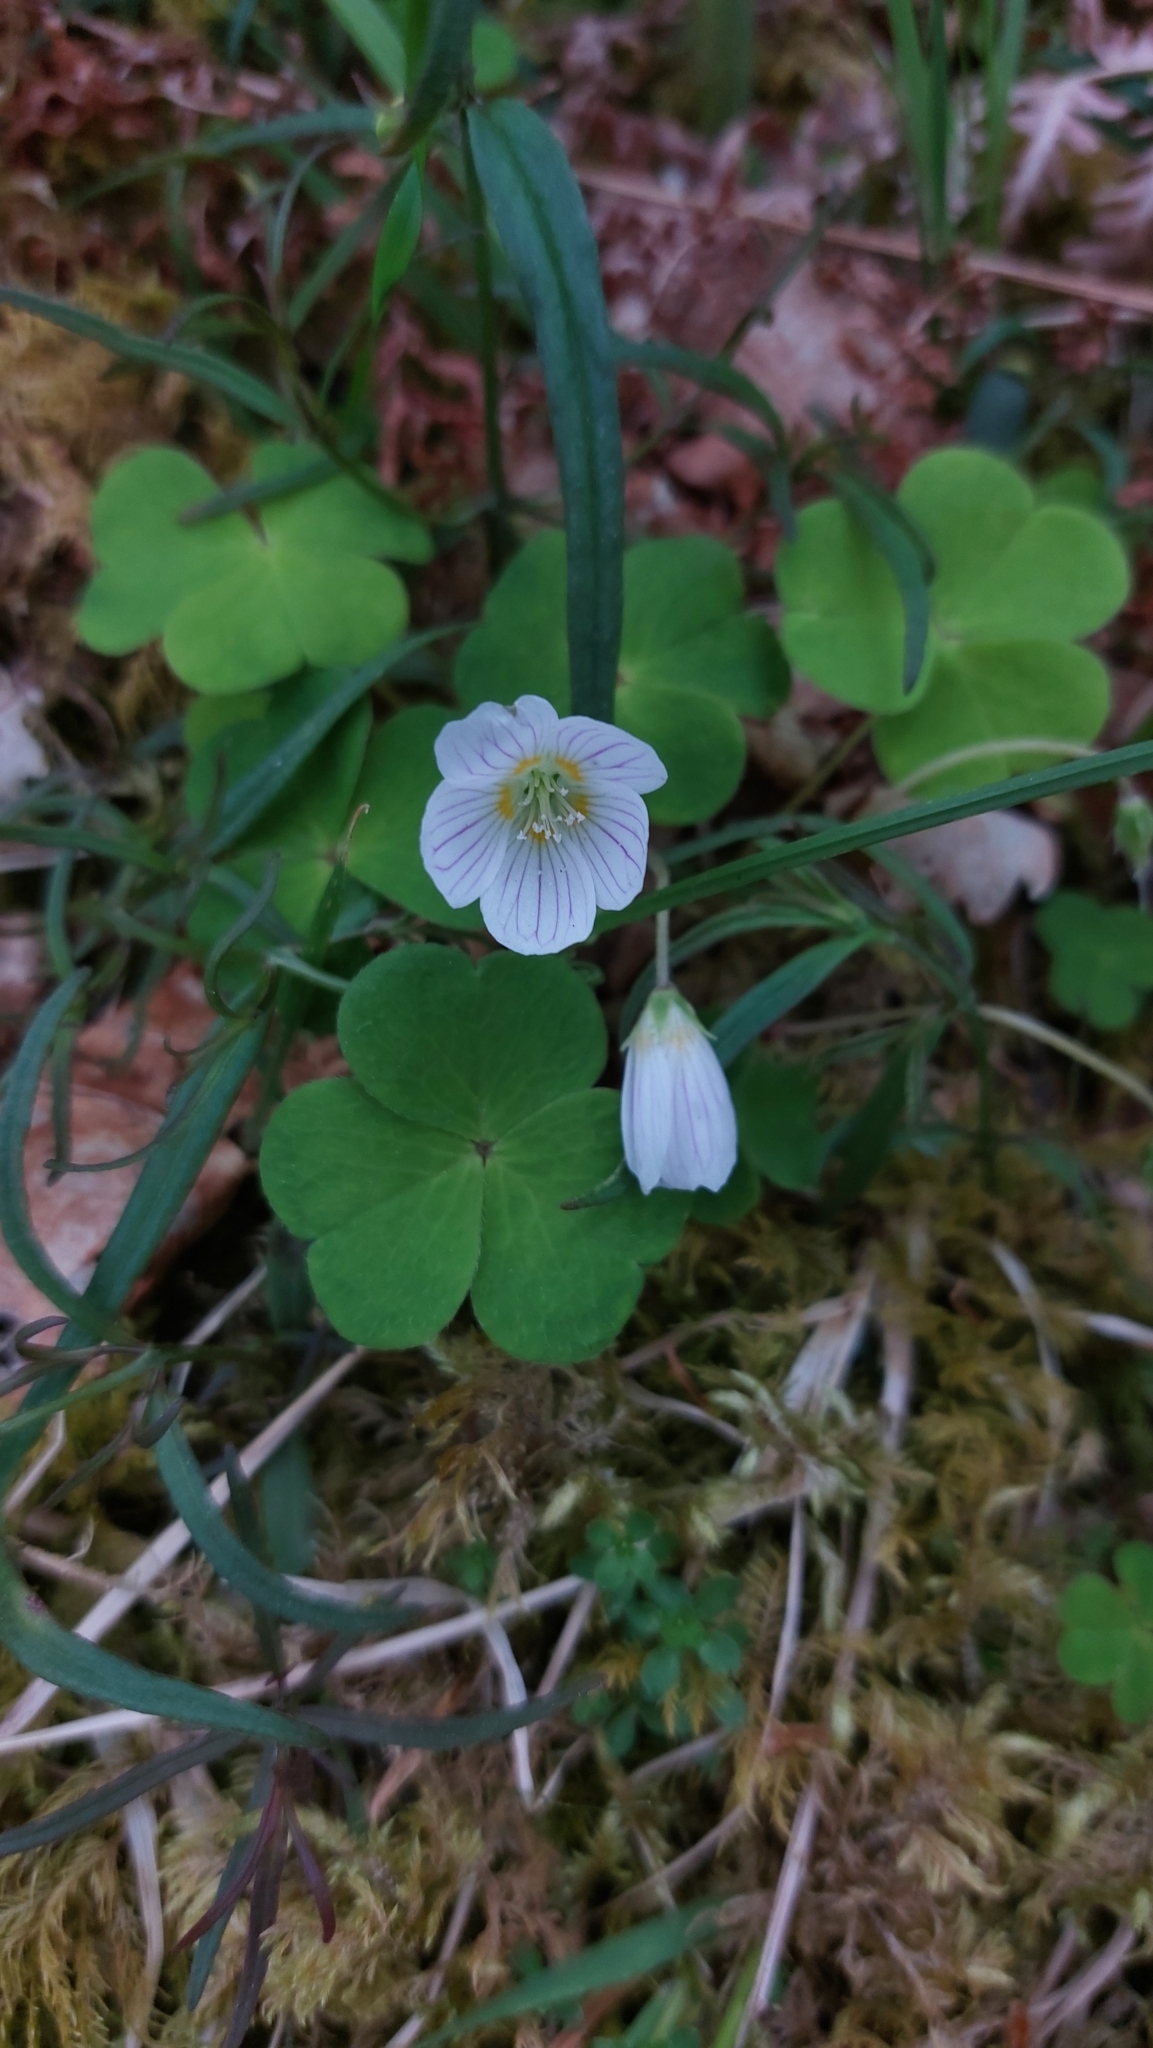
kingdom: Plantae
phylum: Tracheophyta
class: Magnoliopsida
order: Oxalidales
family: Oxalidaceae
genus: Oxalis
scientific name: Oxalis acetosella
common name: Wood-sorrel
